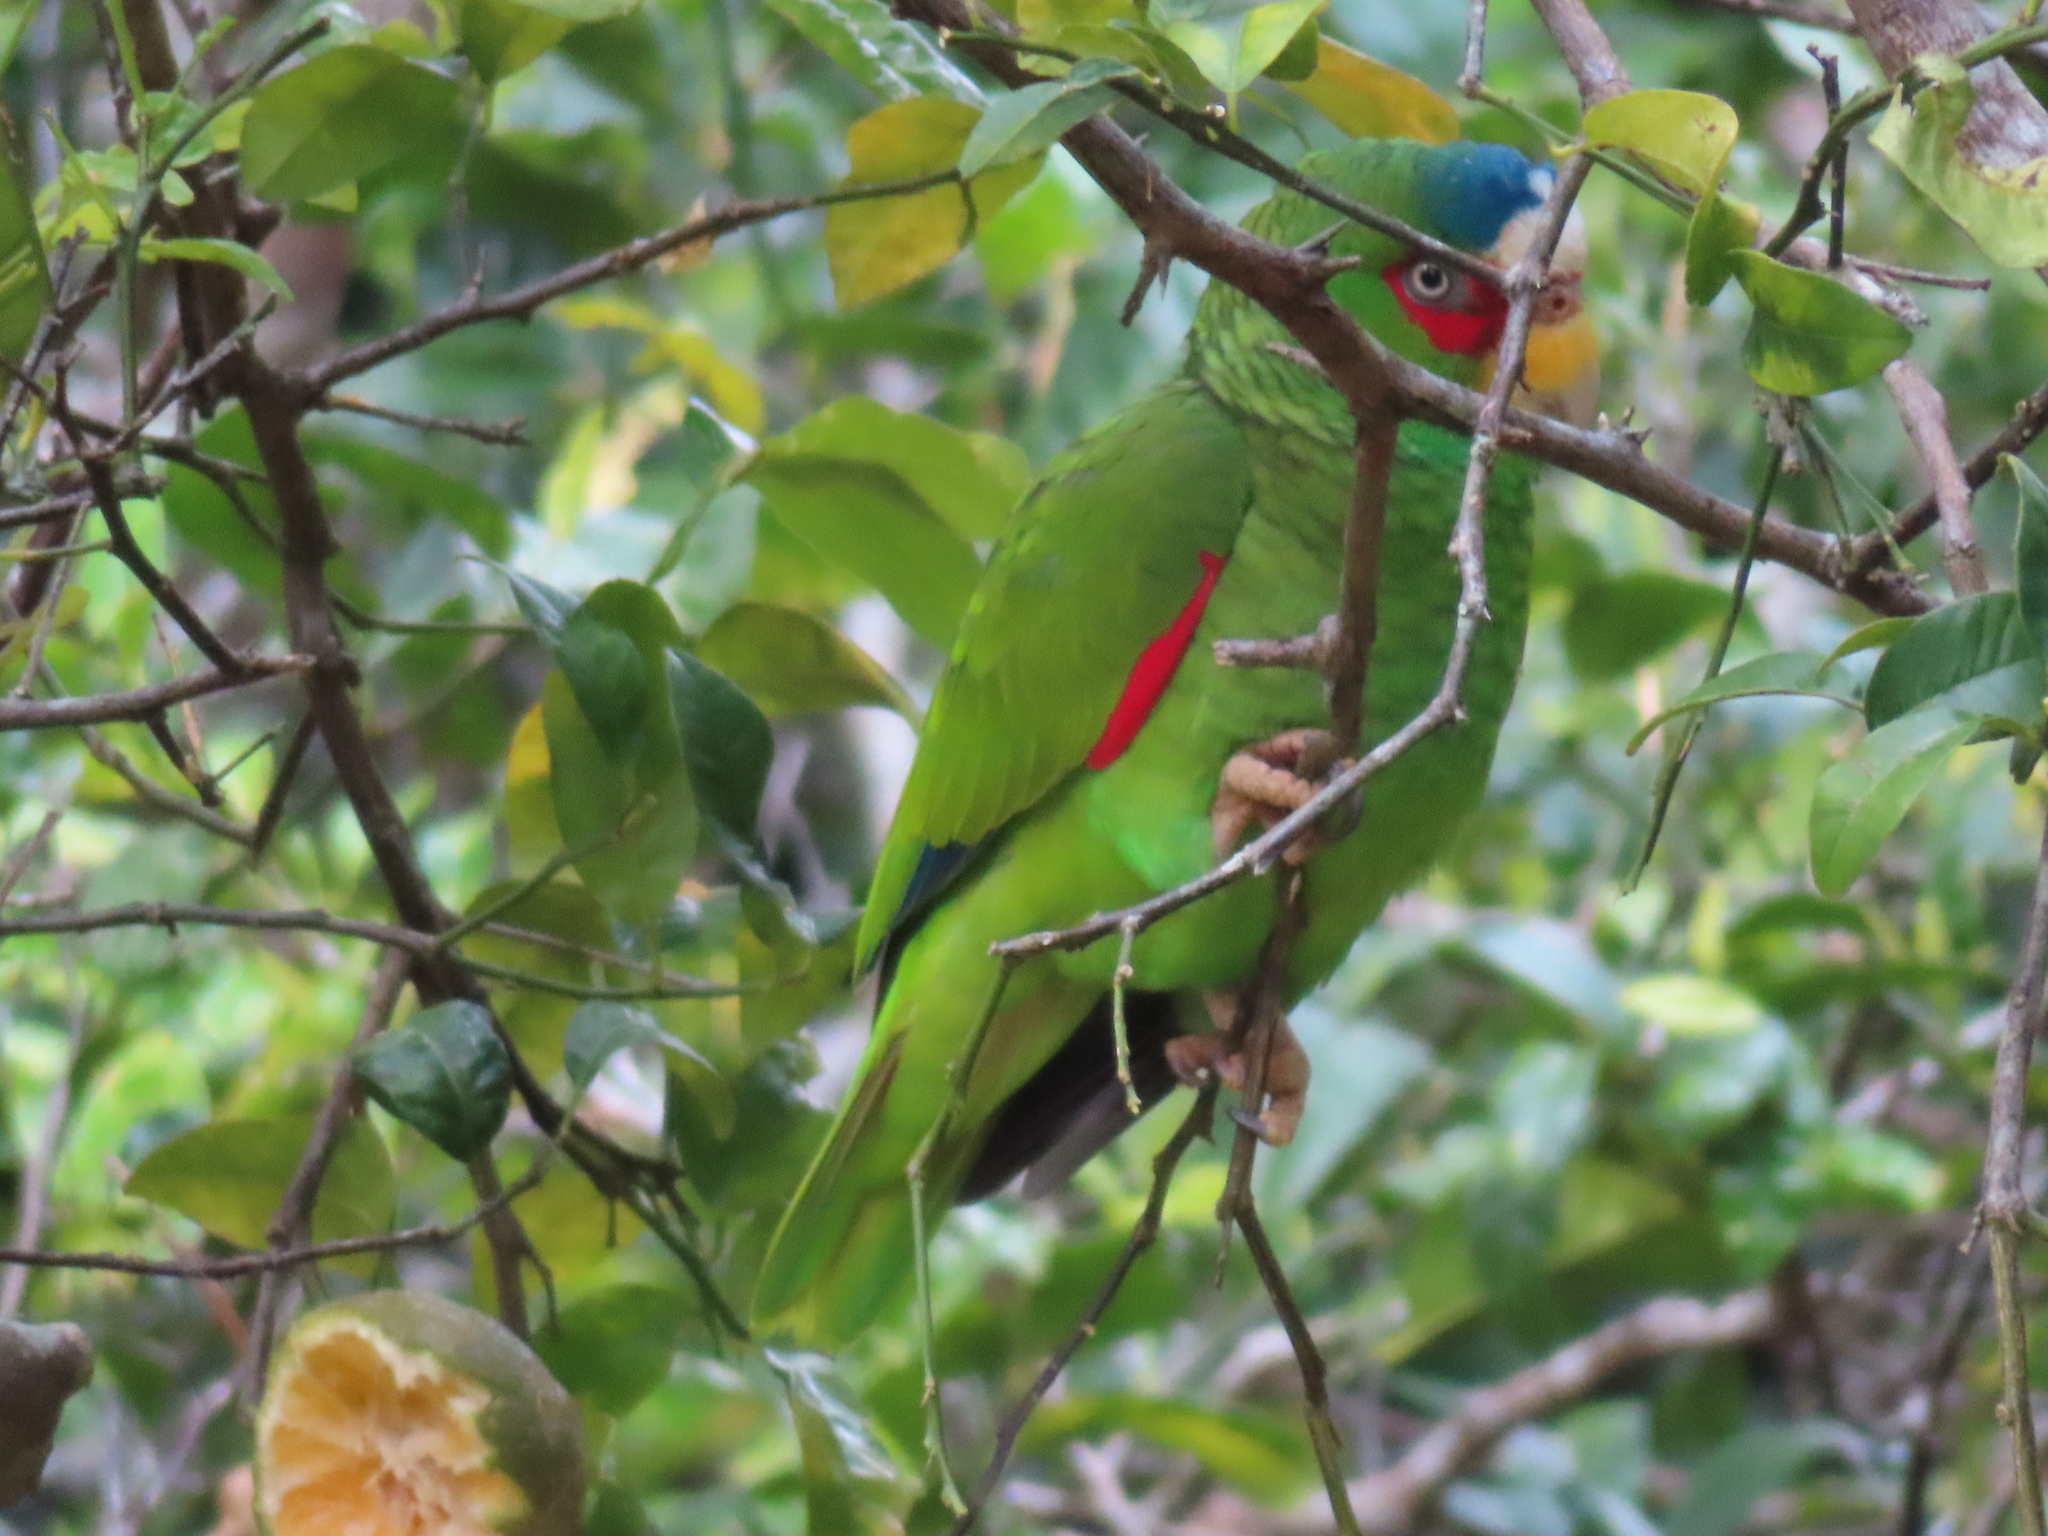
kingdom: Animalia
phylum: Chordata
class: Aves
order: Psittaciformes
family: Psittacidae
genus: Amazona
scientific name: Amazona albifrons
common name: White-fronted amazon
